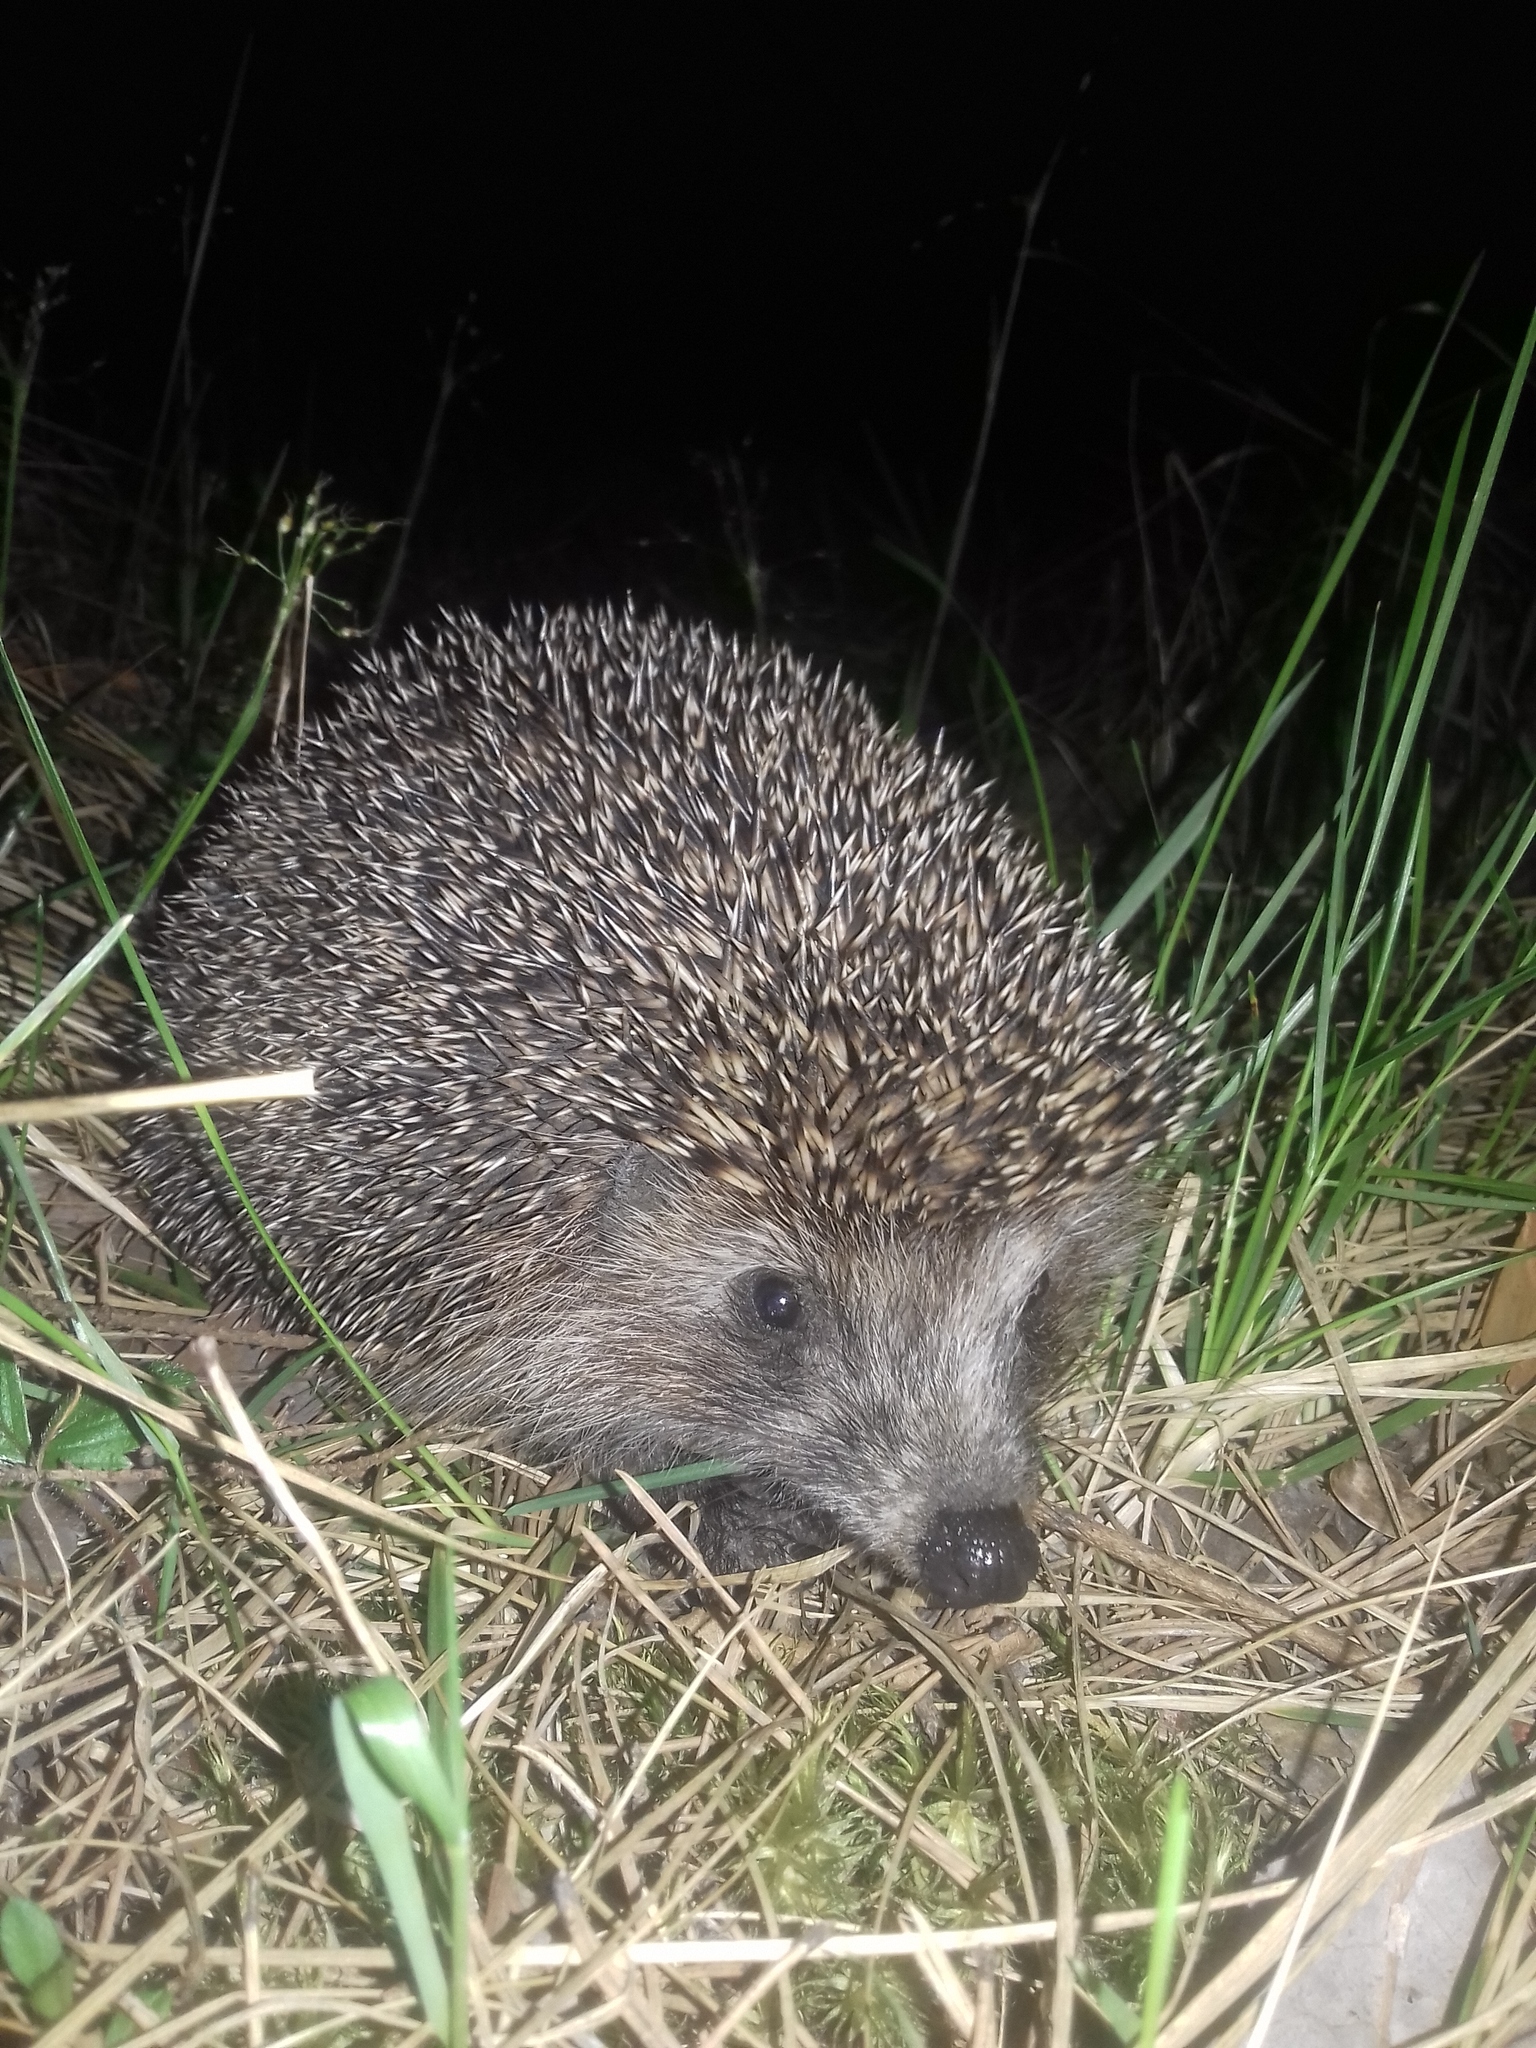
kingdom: Animalia
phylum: Chordata
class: Mammalia
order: Erinaceomorpha
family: Erinaceidae
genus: Erinaceus
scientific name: Erinaceus roumanicus
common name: Northern white-breasted hedgehog
